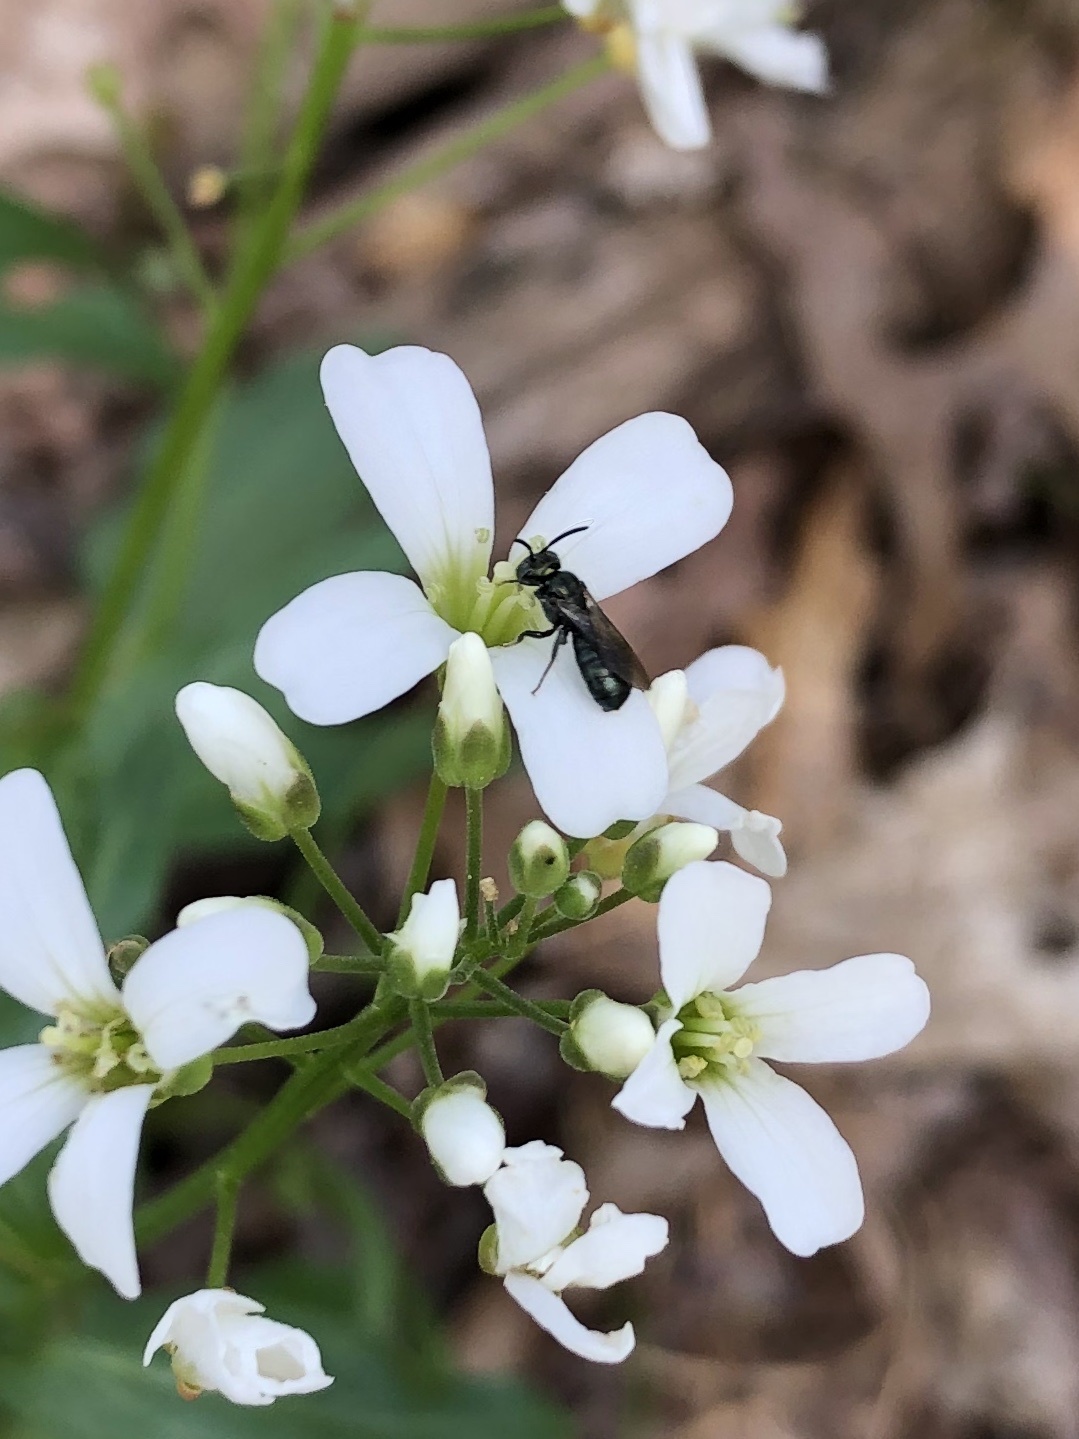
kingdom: Plantae
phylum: Tracheophyta
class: Magnoliopsida
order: Brassicales
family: Brassicaceae
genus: Cardamine
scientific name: Cardamine bulbosa
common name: Spring cress
